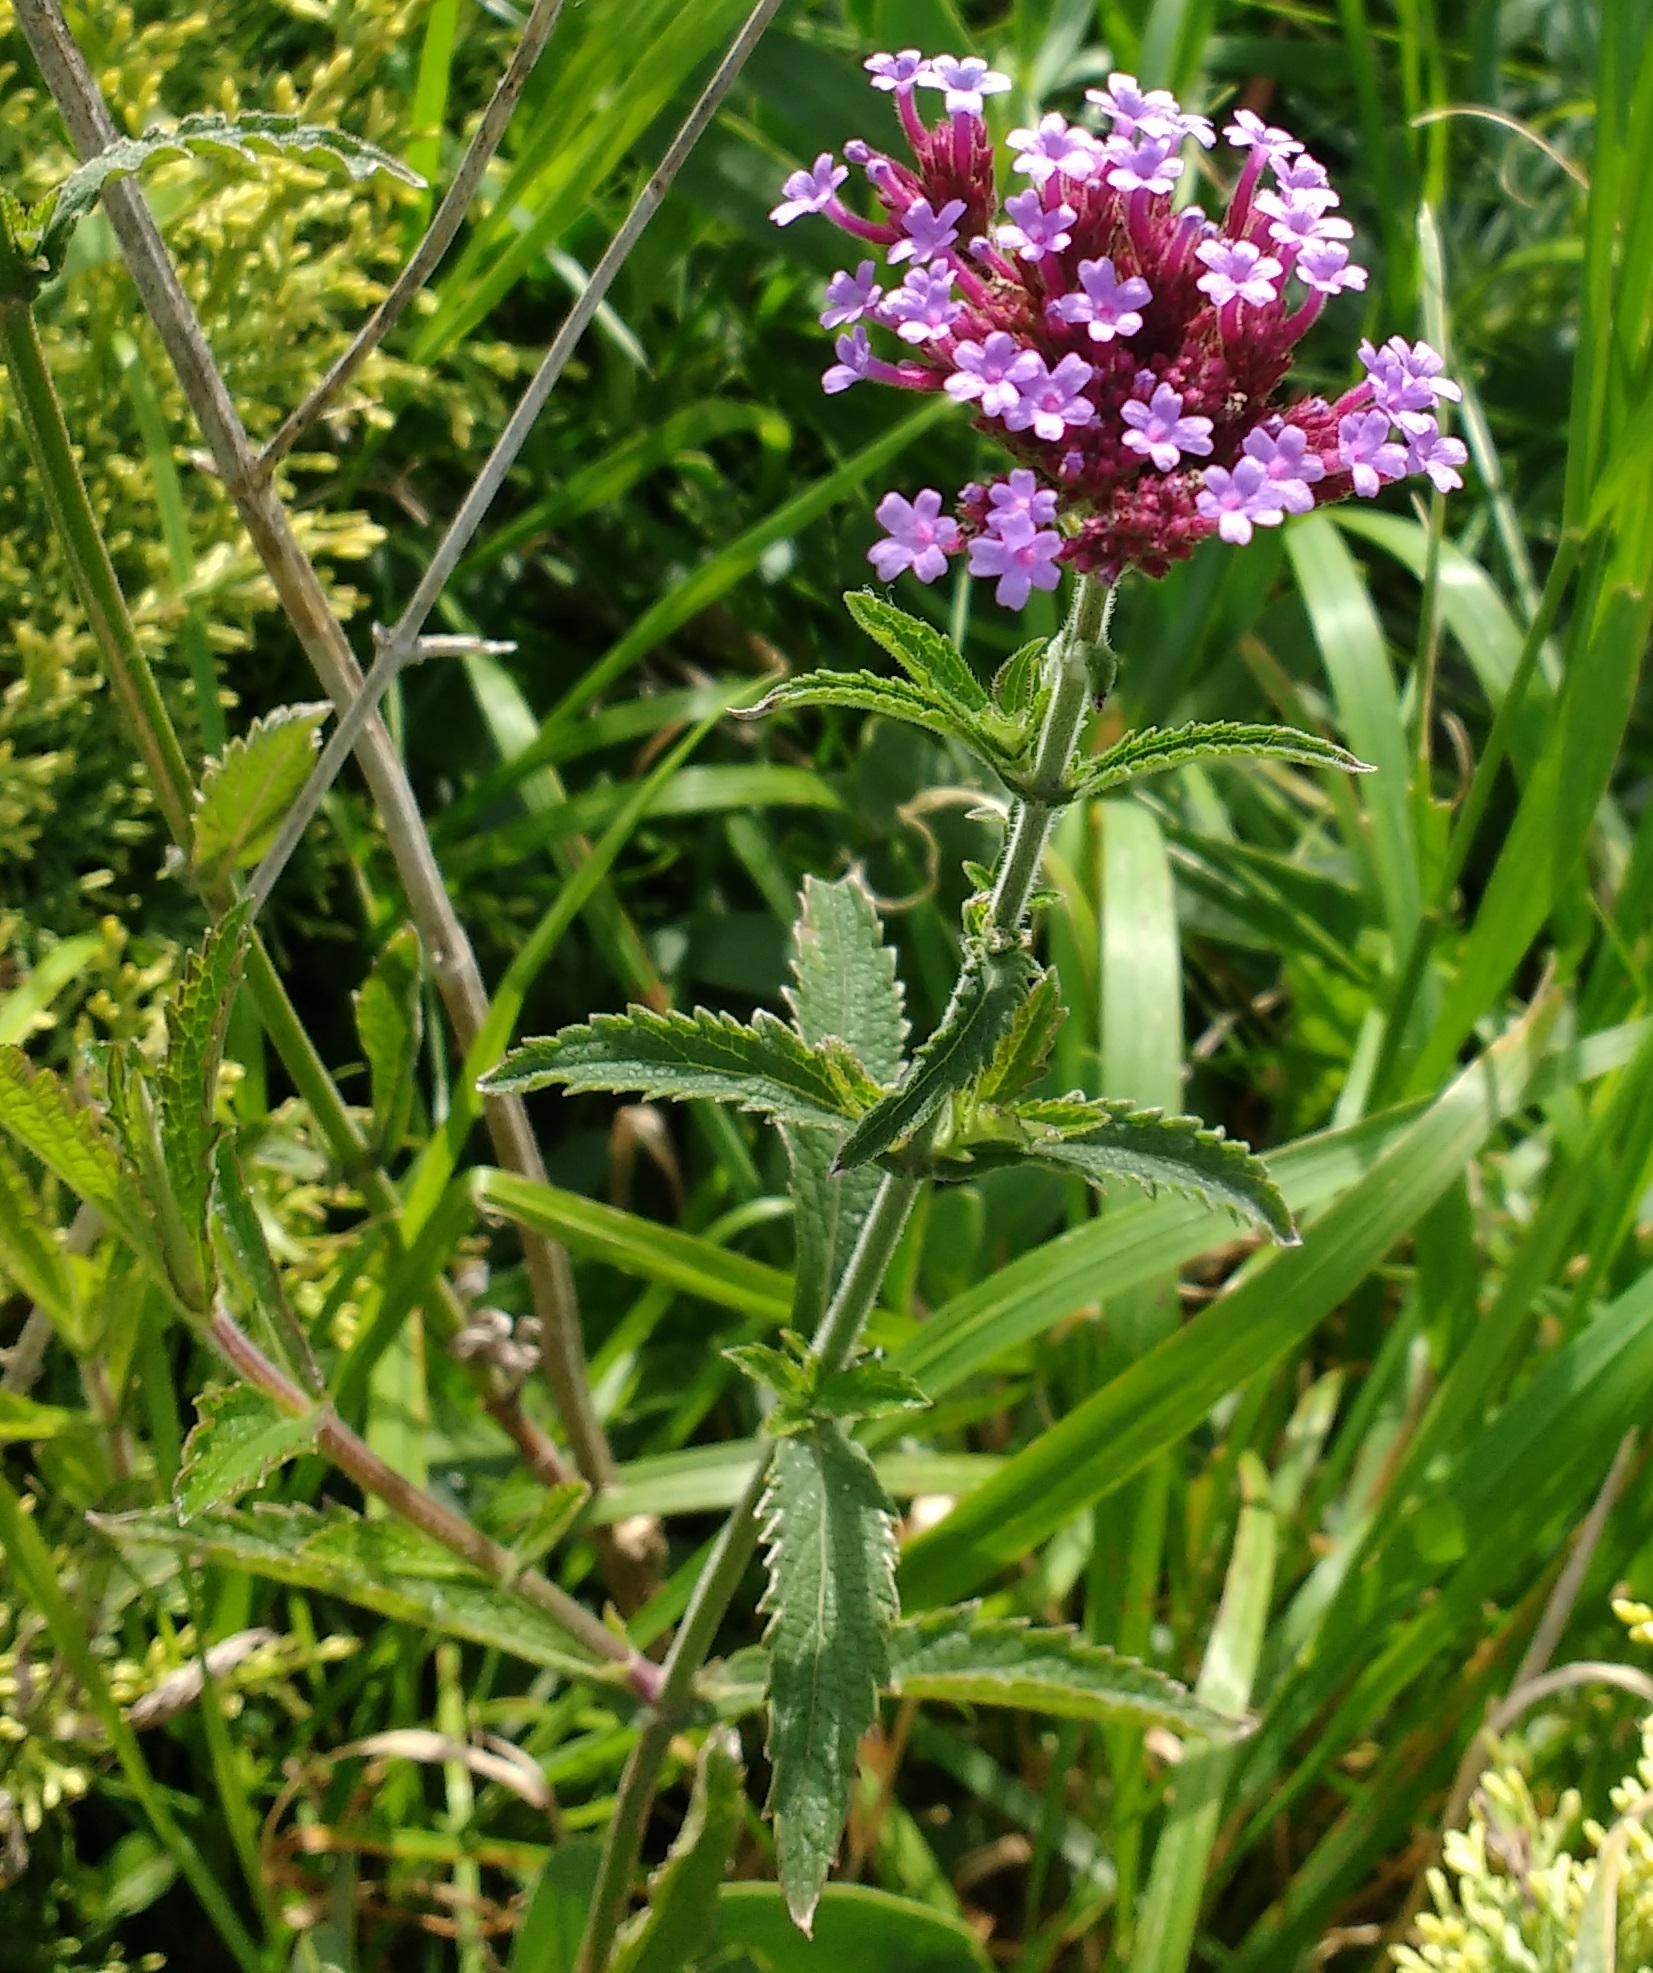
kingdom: Plantae
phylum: Tracheophyta
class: Magnoliopsida
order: Lamiales
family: Verbenaceae
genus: Verbena
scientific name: Verbena bonariensis
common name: Purpletop vervain
